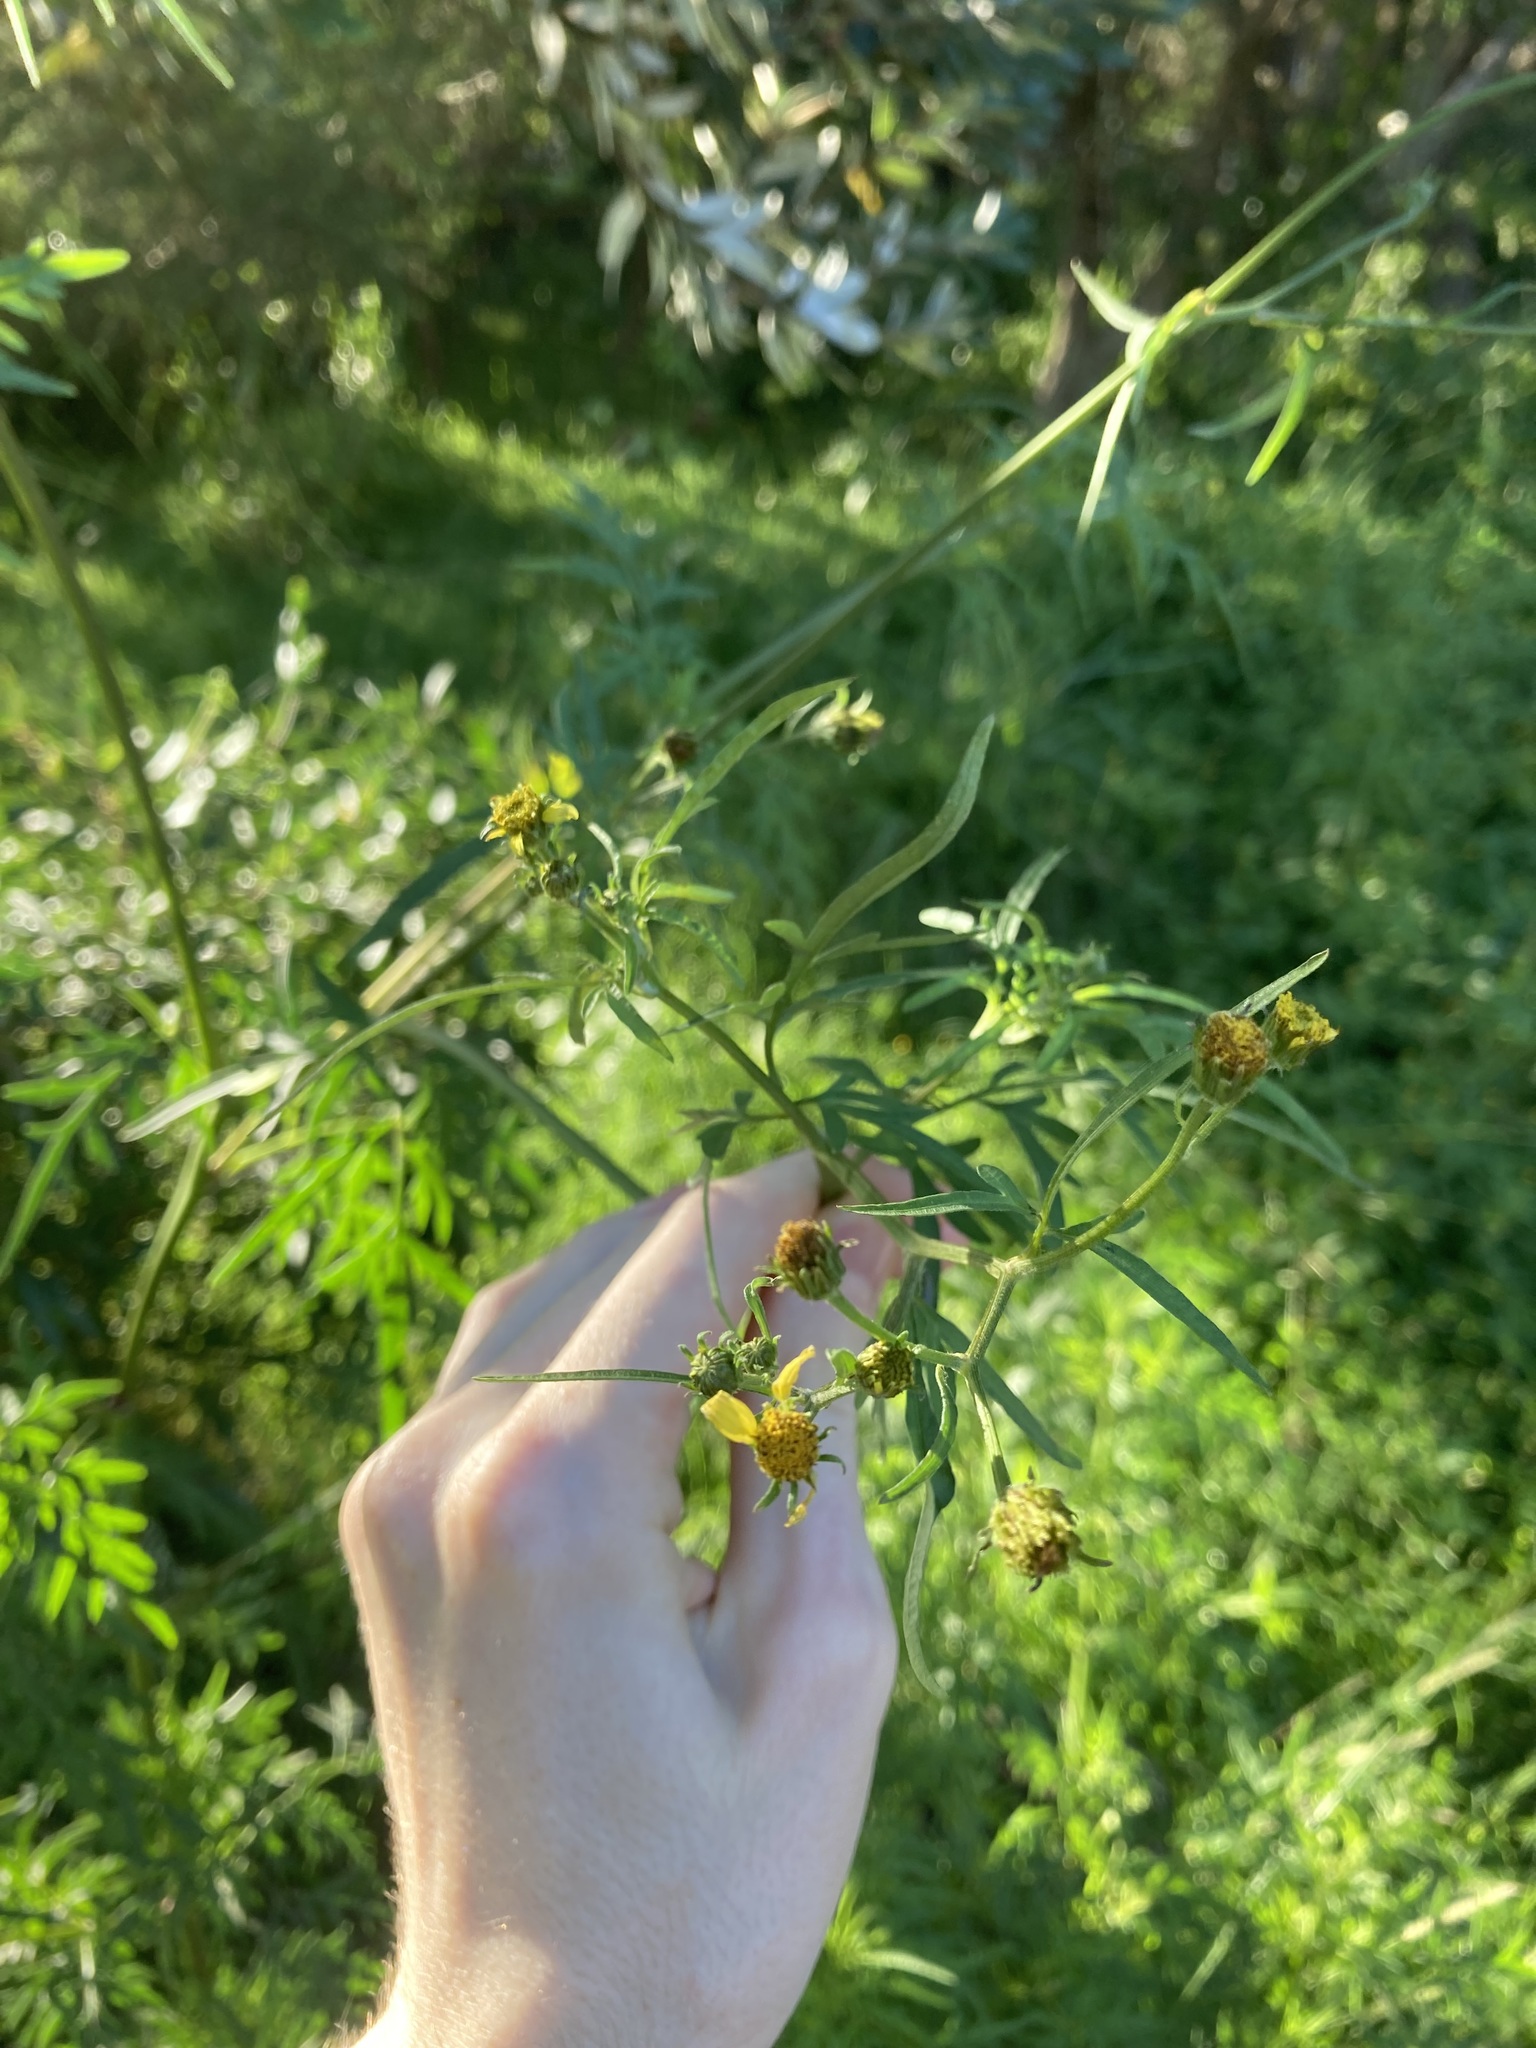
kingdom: Plantae
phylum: Tracheophyta
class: Magnoliopsida
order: Asterales
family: Asteraceae
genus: Bidens
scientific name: Bidens subalternans
